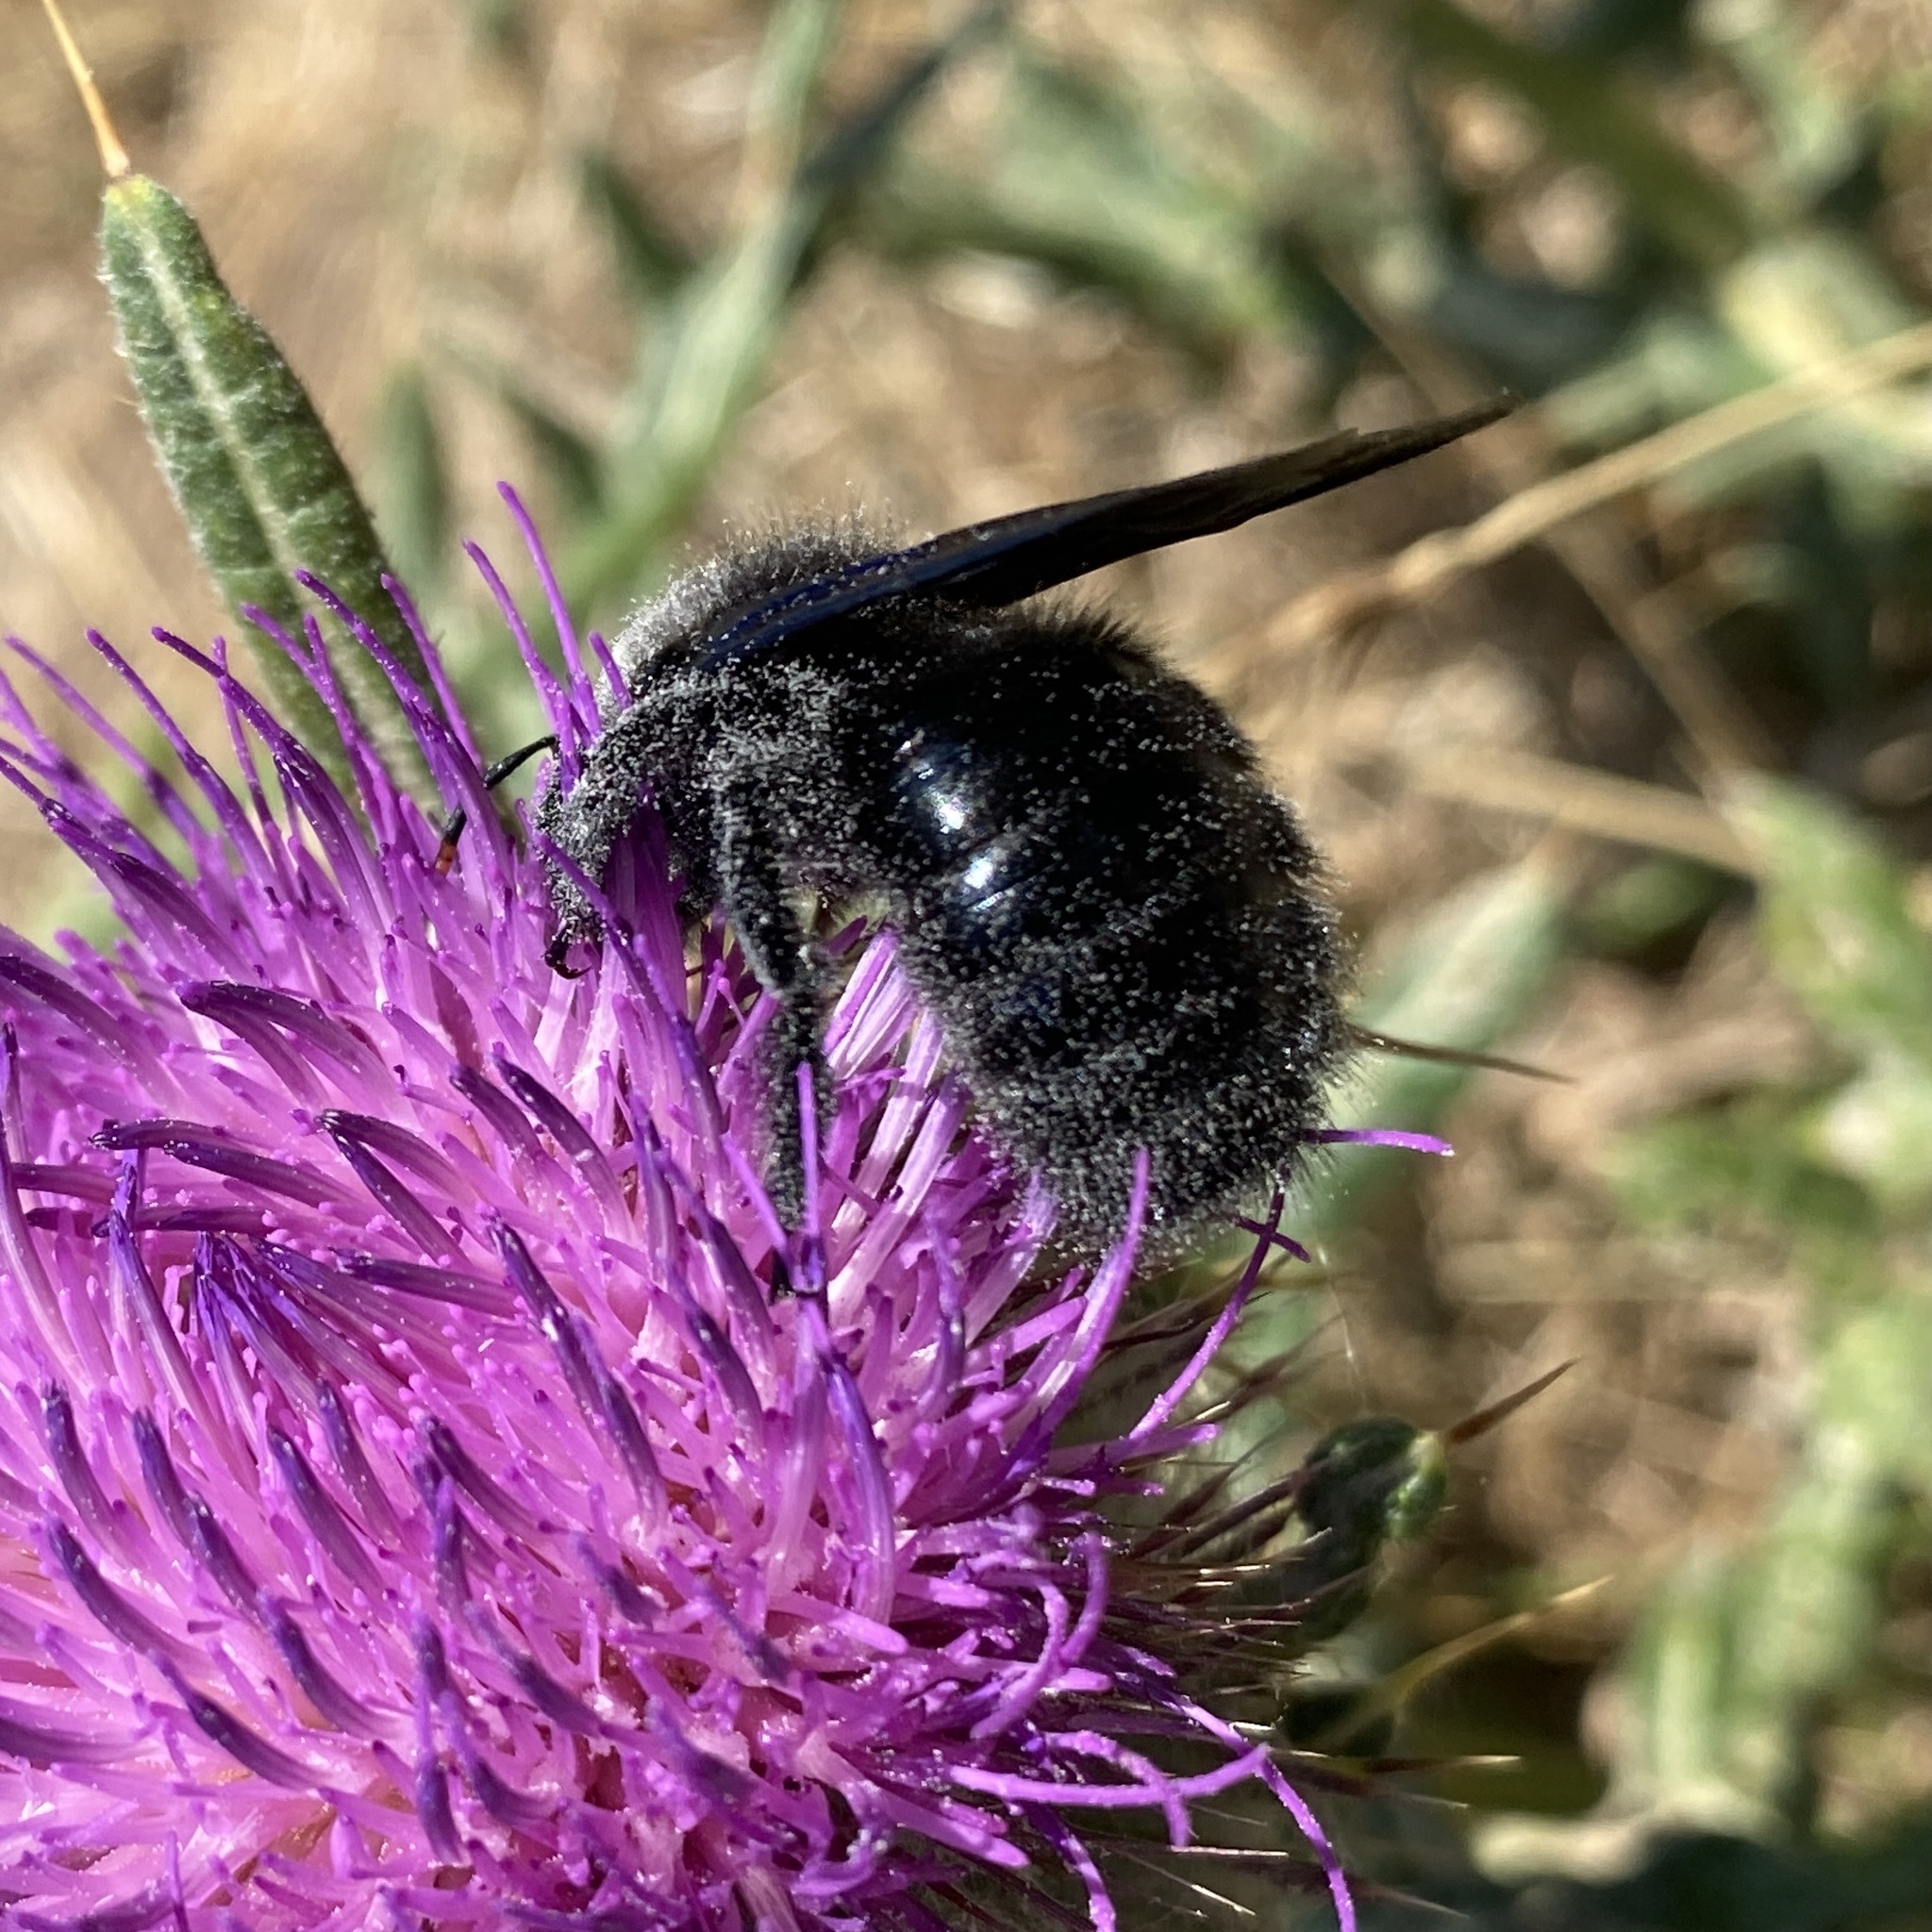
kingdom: Animalia
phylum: Arthropoda
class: Insecta
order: Hymenoptera
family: Apidae
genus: Xylocopa
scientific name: Xylocopa violacea
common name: Violet carpenter bee
